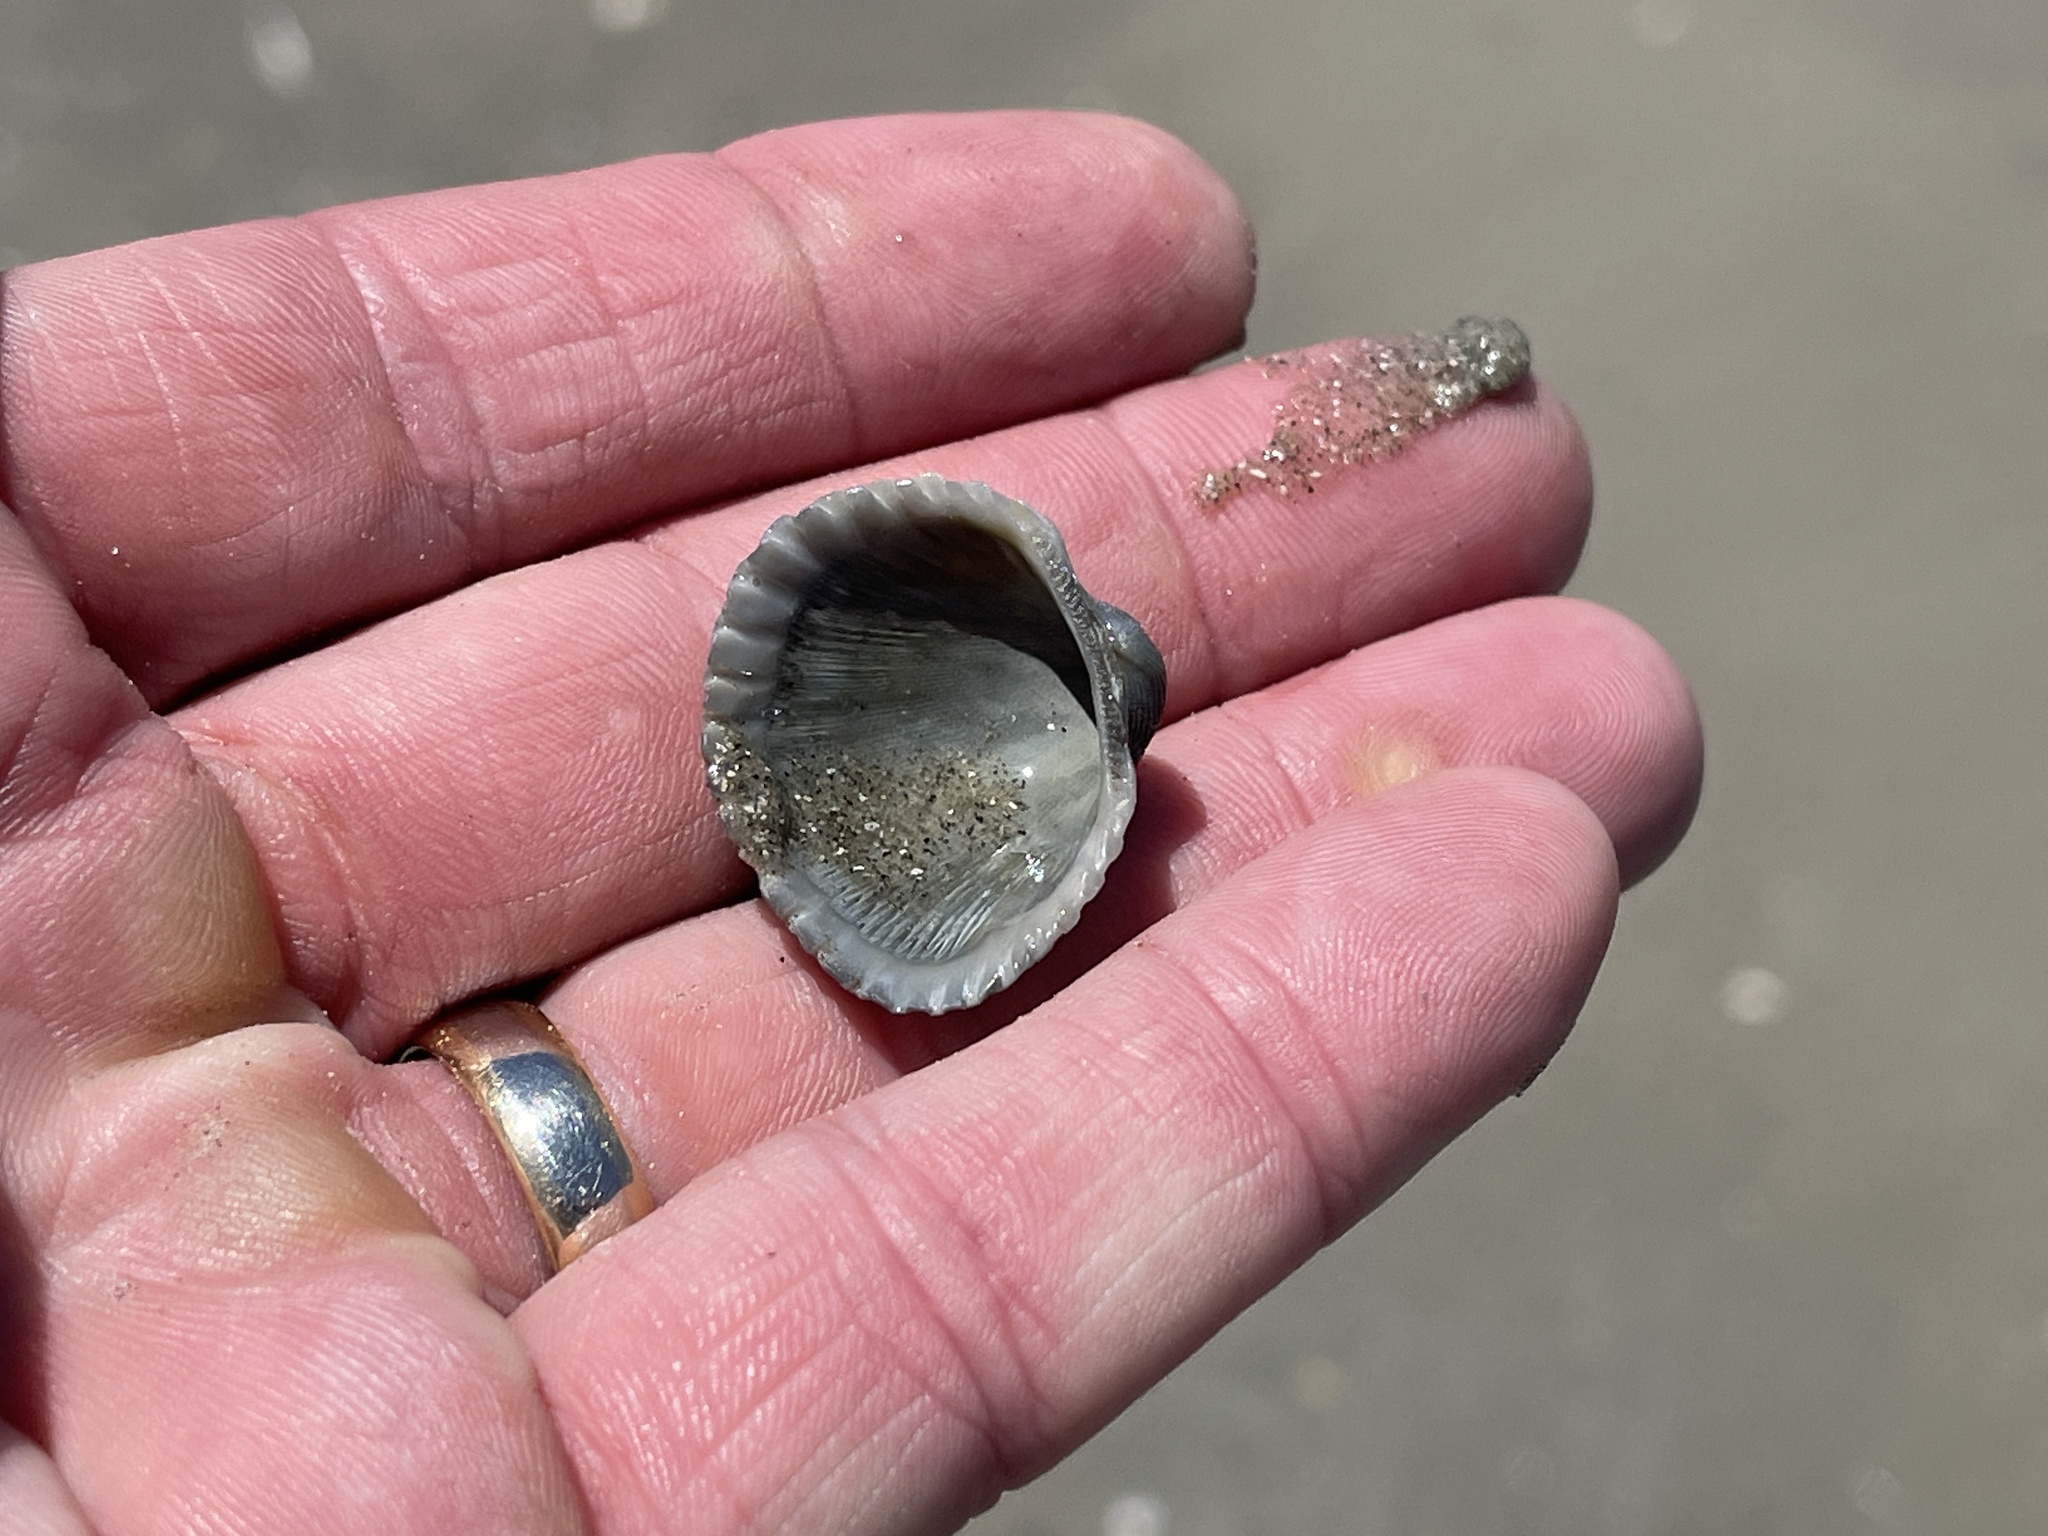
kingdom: Animalia
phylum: Mollusca
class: Bivalvia
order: Arcida
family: Arcidae
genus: Anadara
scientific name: Anadara brasiliana
